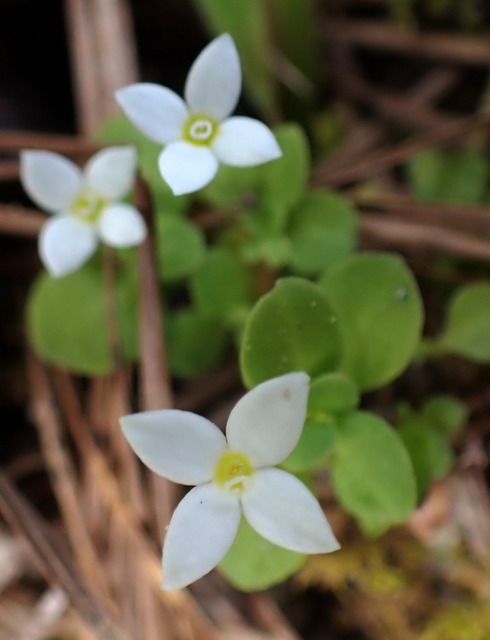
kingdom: Plantae
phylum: Tracheophyta
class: Magnoliopsida
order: Gentianales
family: Rubiaceae
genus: Houstonia
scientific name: Houstonia procumbens
